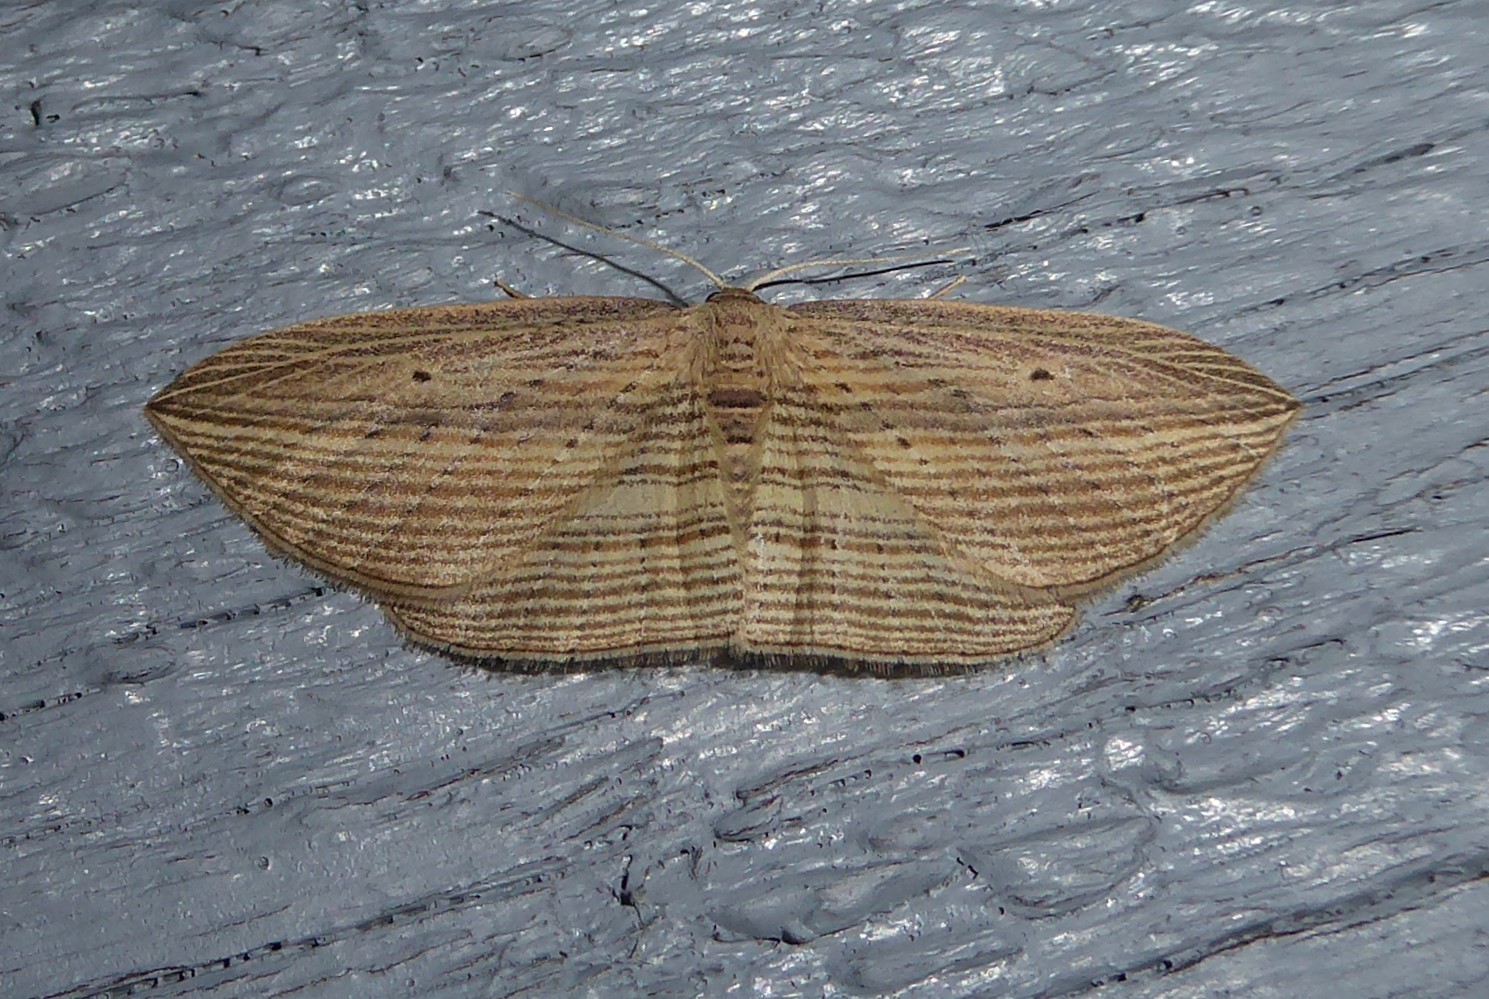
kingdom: Animalia
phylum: Arthropoda
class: Insecta
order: Lepidoptera
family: Geometridae
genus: Epiphryne
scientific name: Epiphryne verriculata
